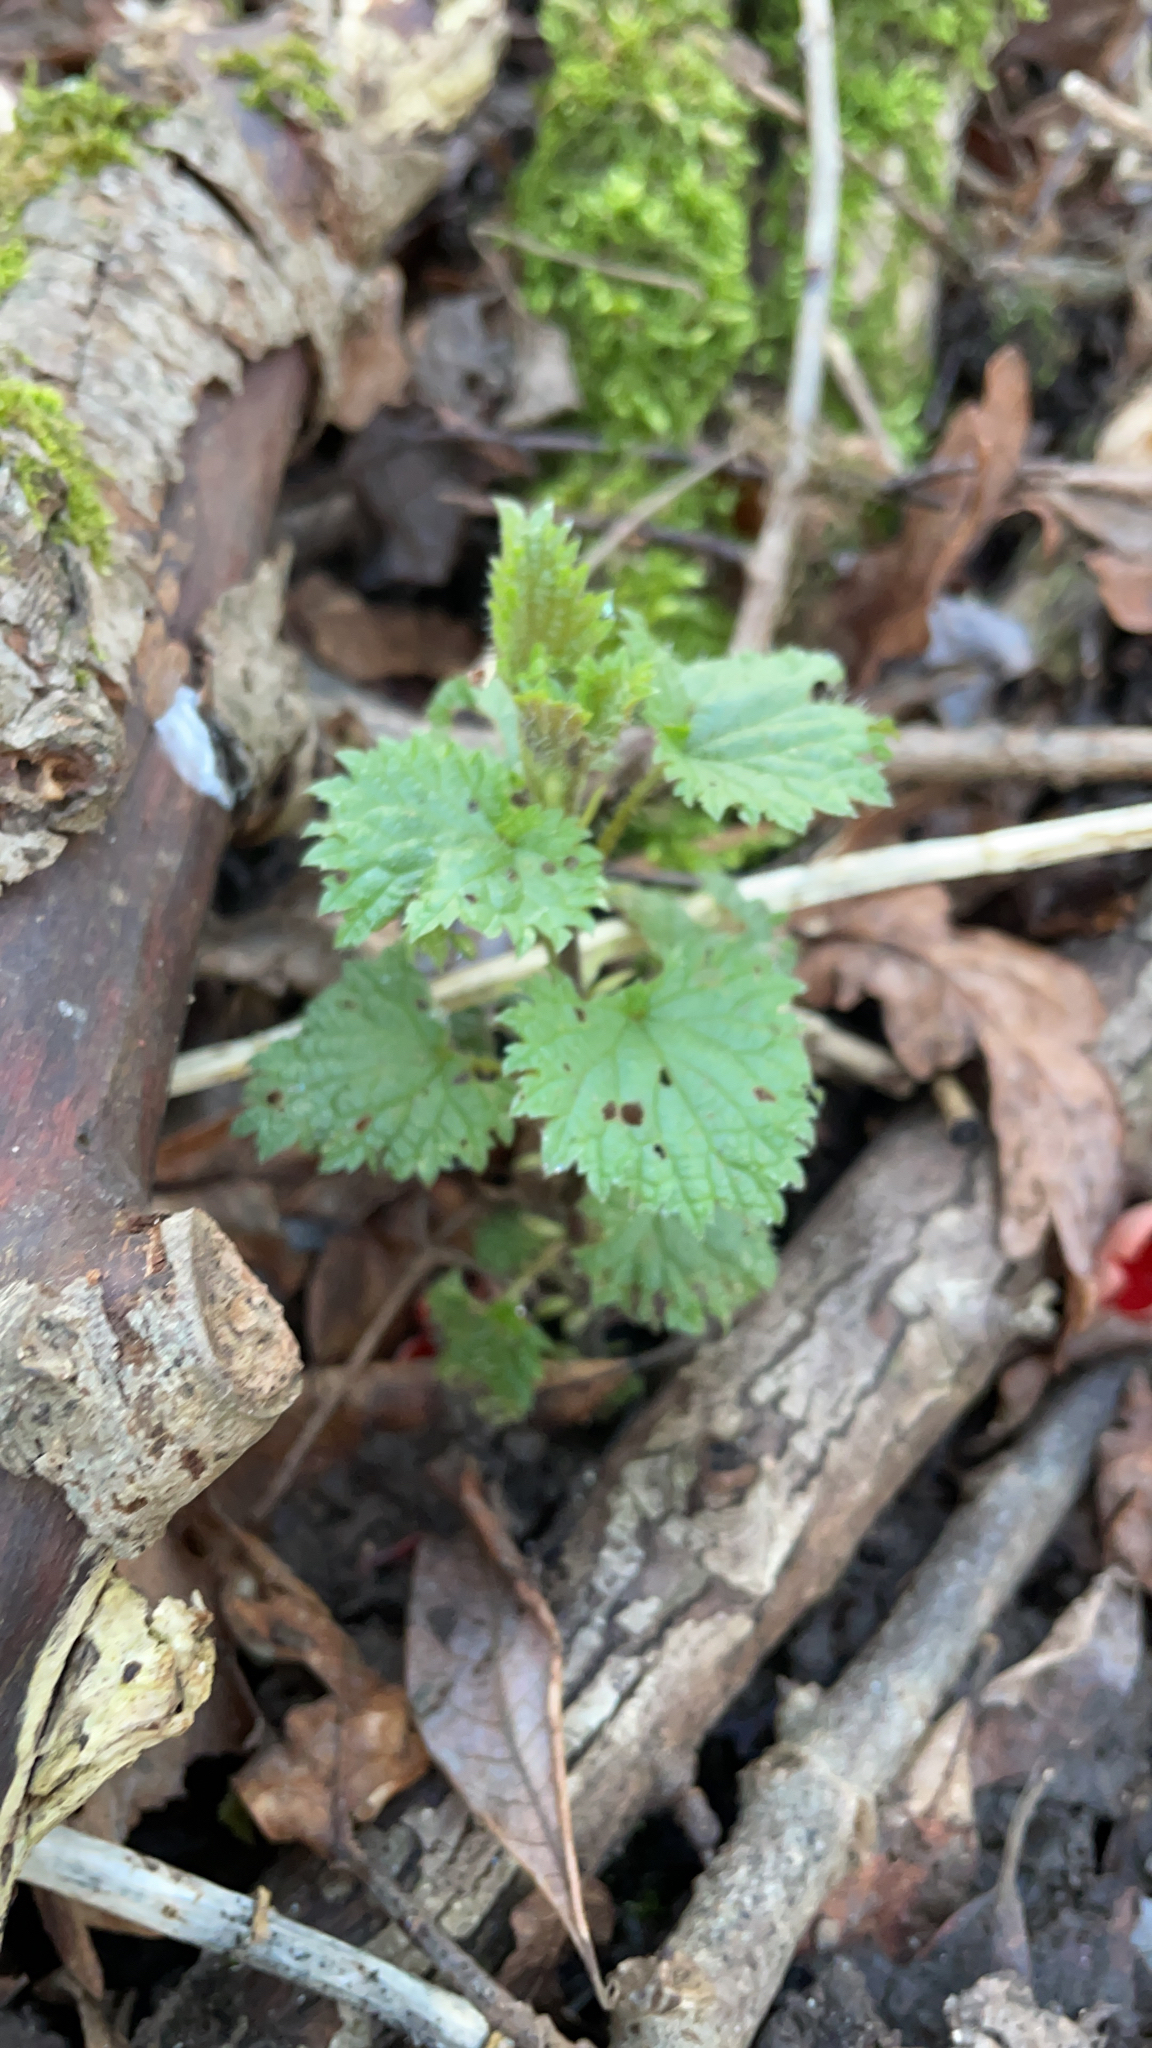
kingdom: Plantae
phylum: Tracheophyta
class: Magnoliopsida
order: Rosales
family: Urticaceae
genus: Urtica
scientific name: Urtica dioica
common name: Common nettle
